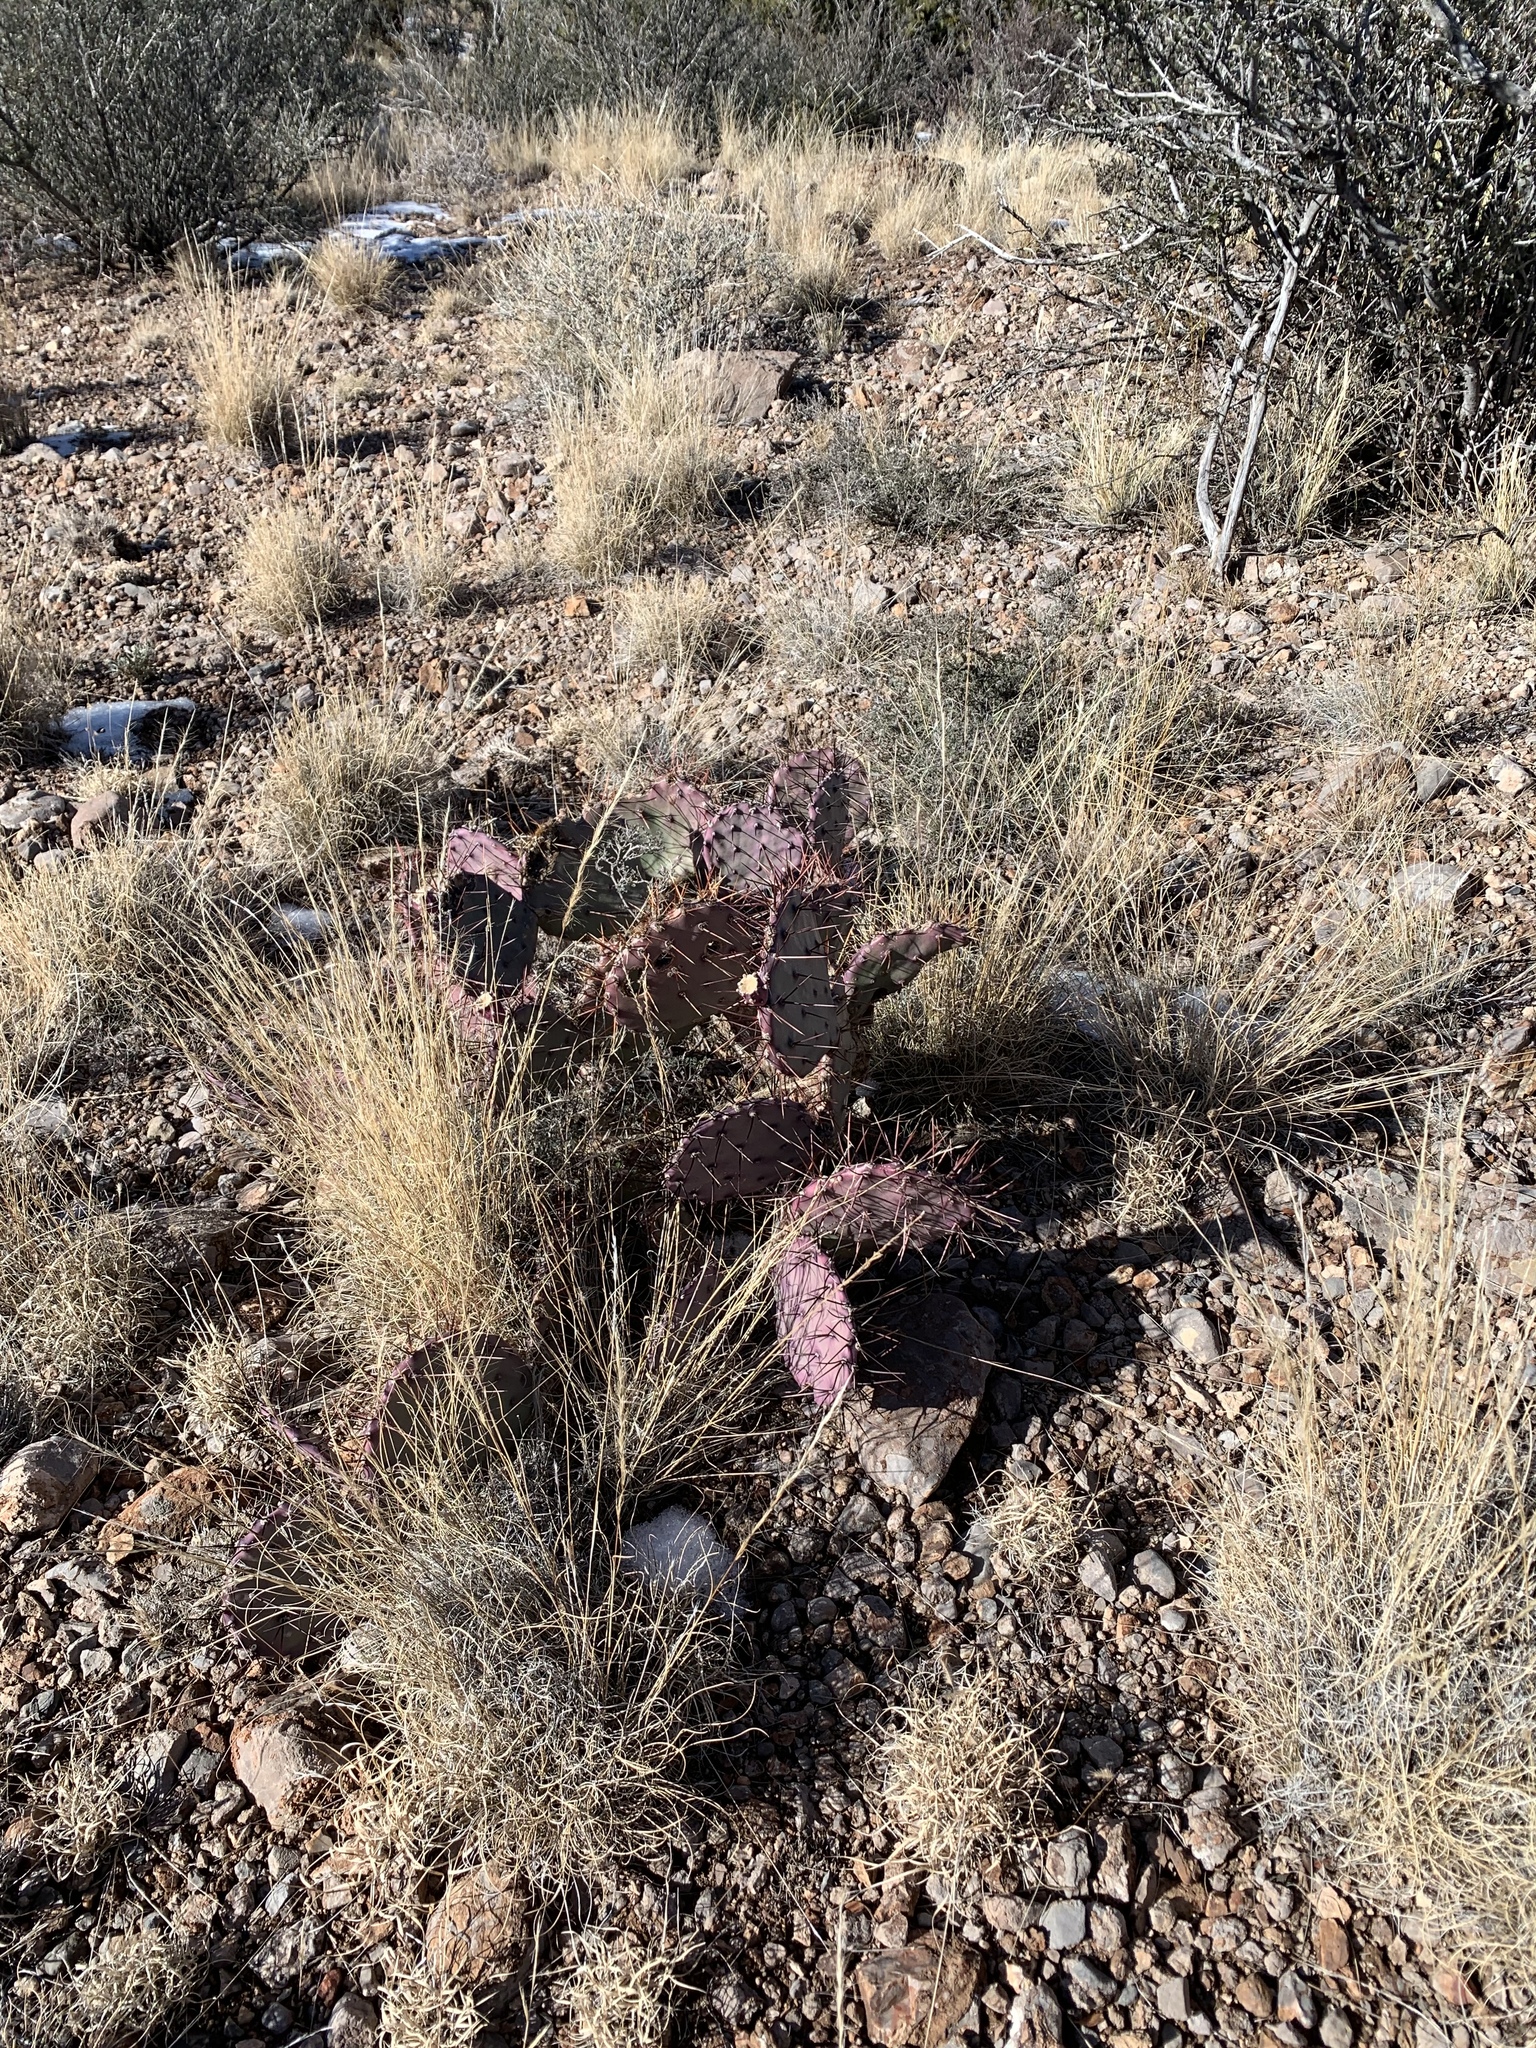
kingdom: Plantae
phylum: Tracheophyta
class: Magnoliopsida
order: Caryophyllales
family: Cactaceae
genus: Opuntia
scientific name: Opuntia macrocentra
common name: Purple prickly-pear
